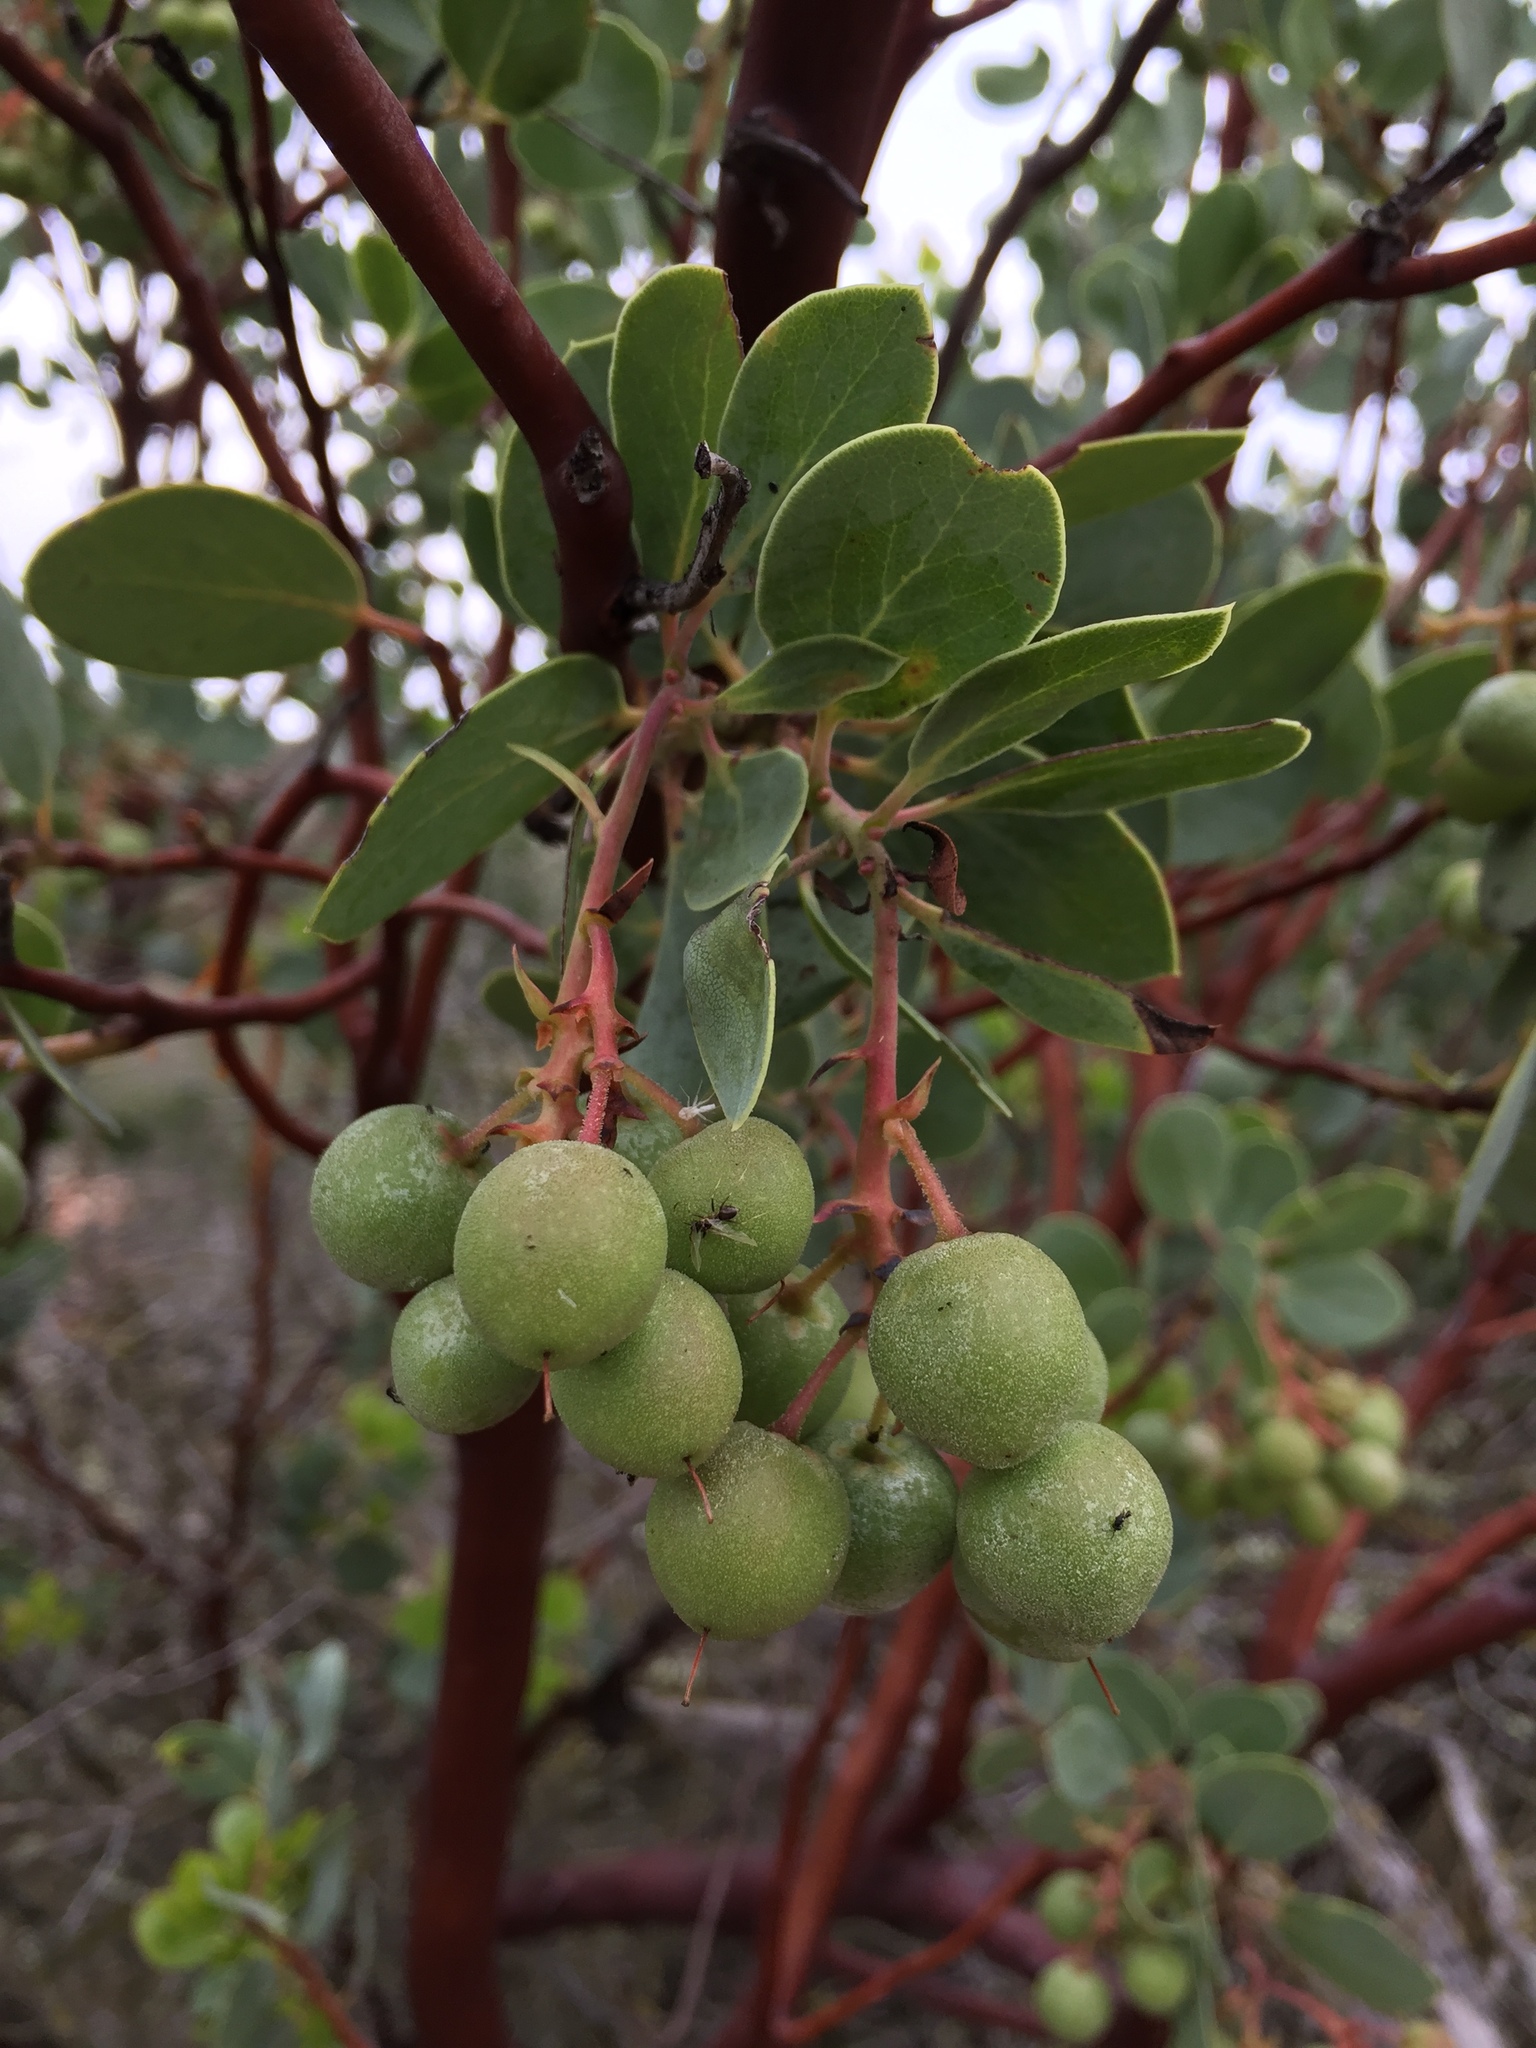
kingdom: Plantae
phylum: Tracheophyta
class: Magnoliopsida
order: Ericales
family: Ericaceae
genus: Arctostaphylos
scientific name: Arctostaphylos glauca
